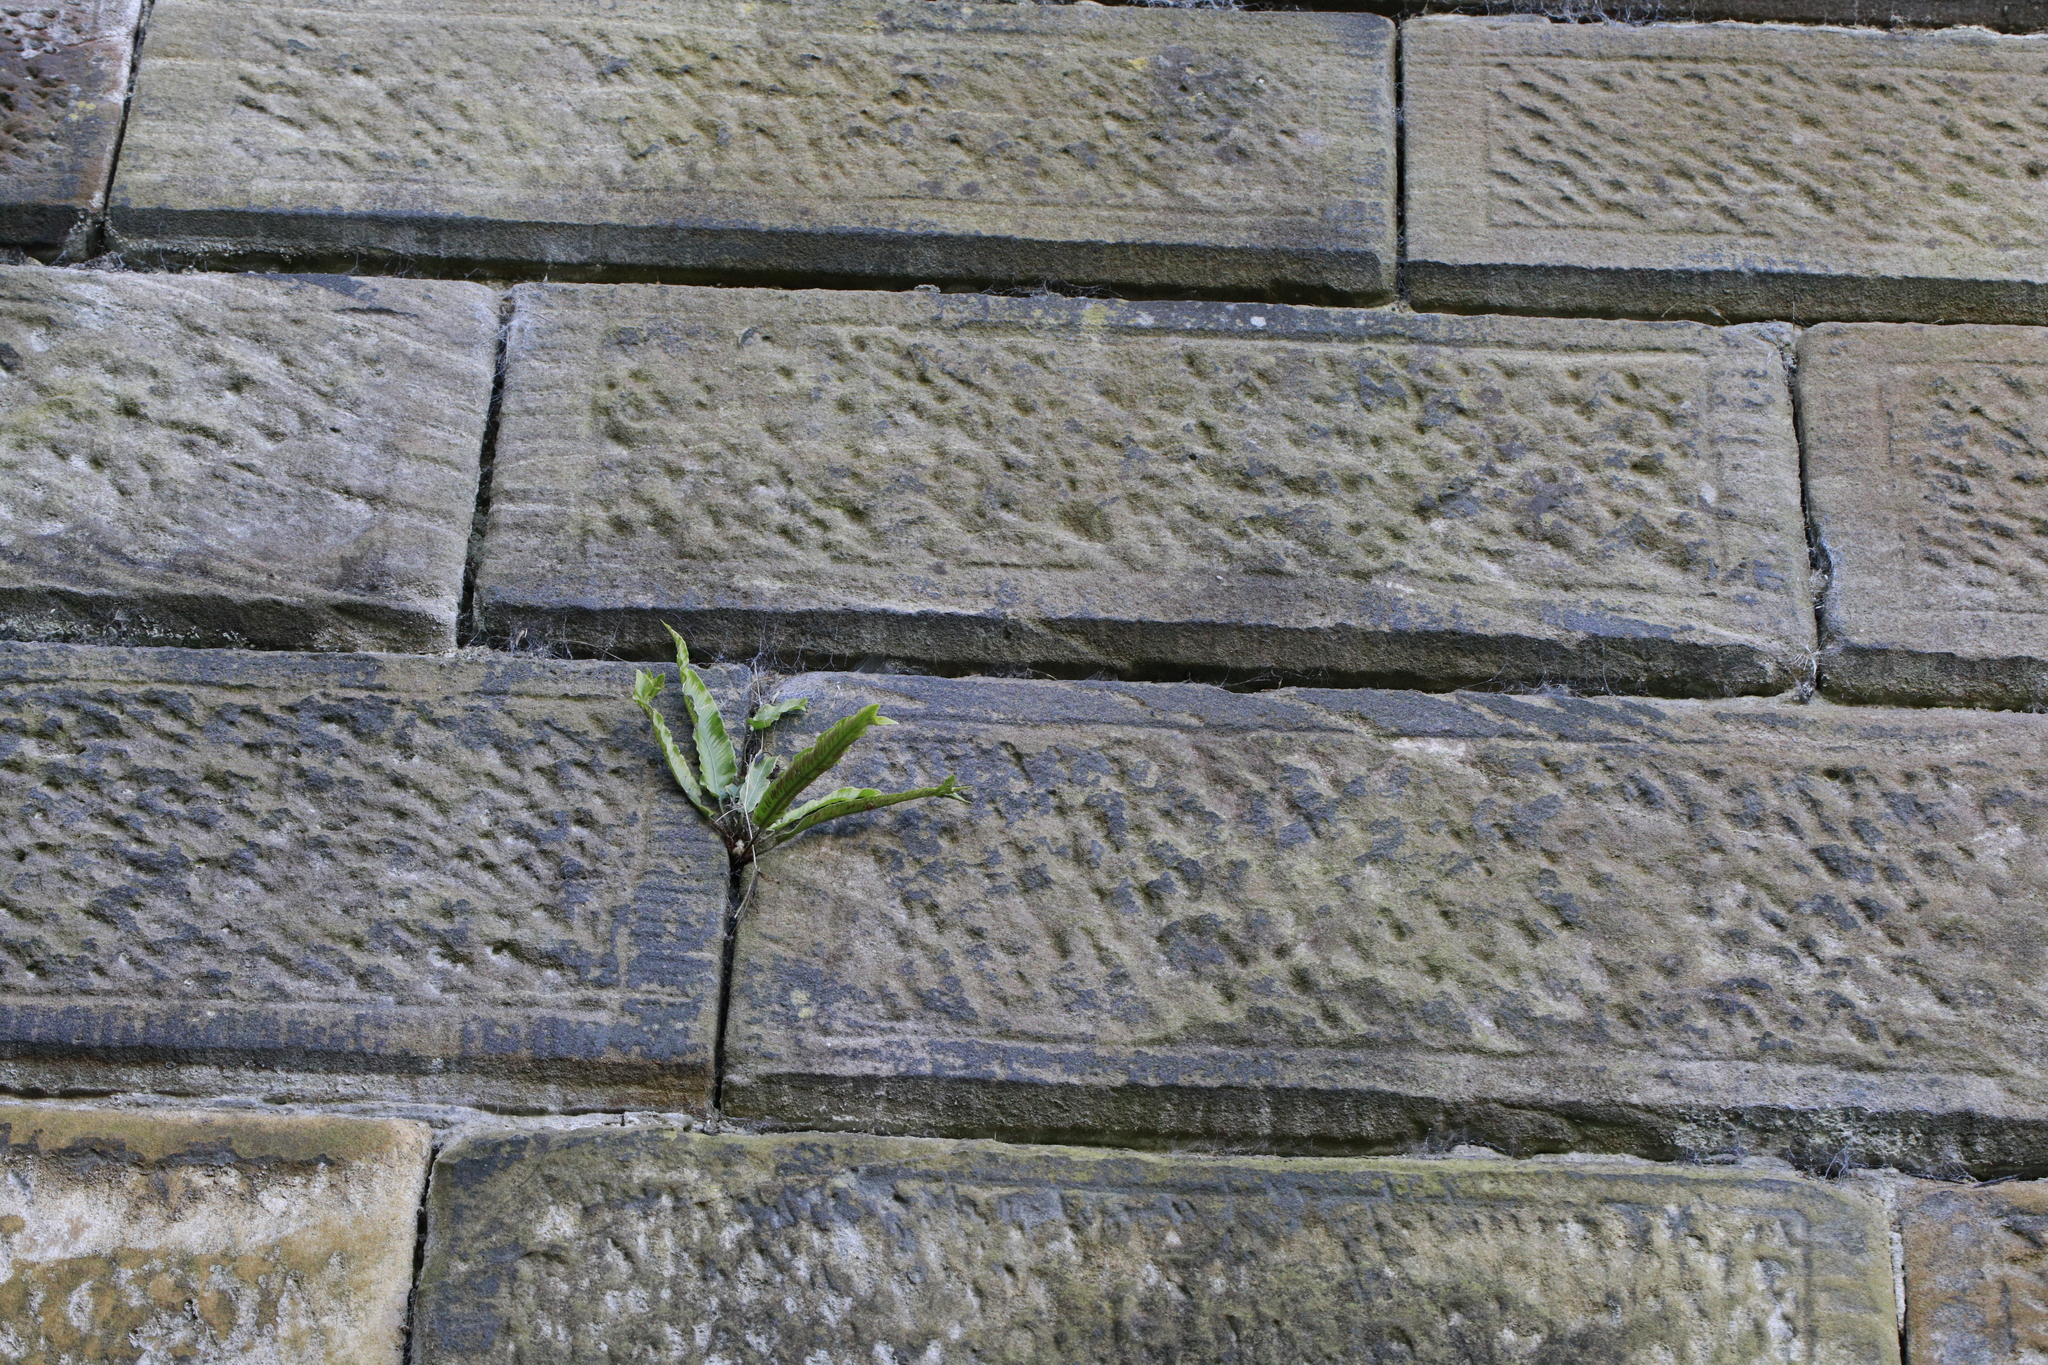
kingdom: Plantae
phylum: Tracheophyta
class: Polypodiopsida
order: Polypodiales
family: Aspleniaceae
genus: Asplenium
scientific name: Asplenium scolopendrium
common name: Hart's-tongue fern
